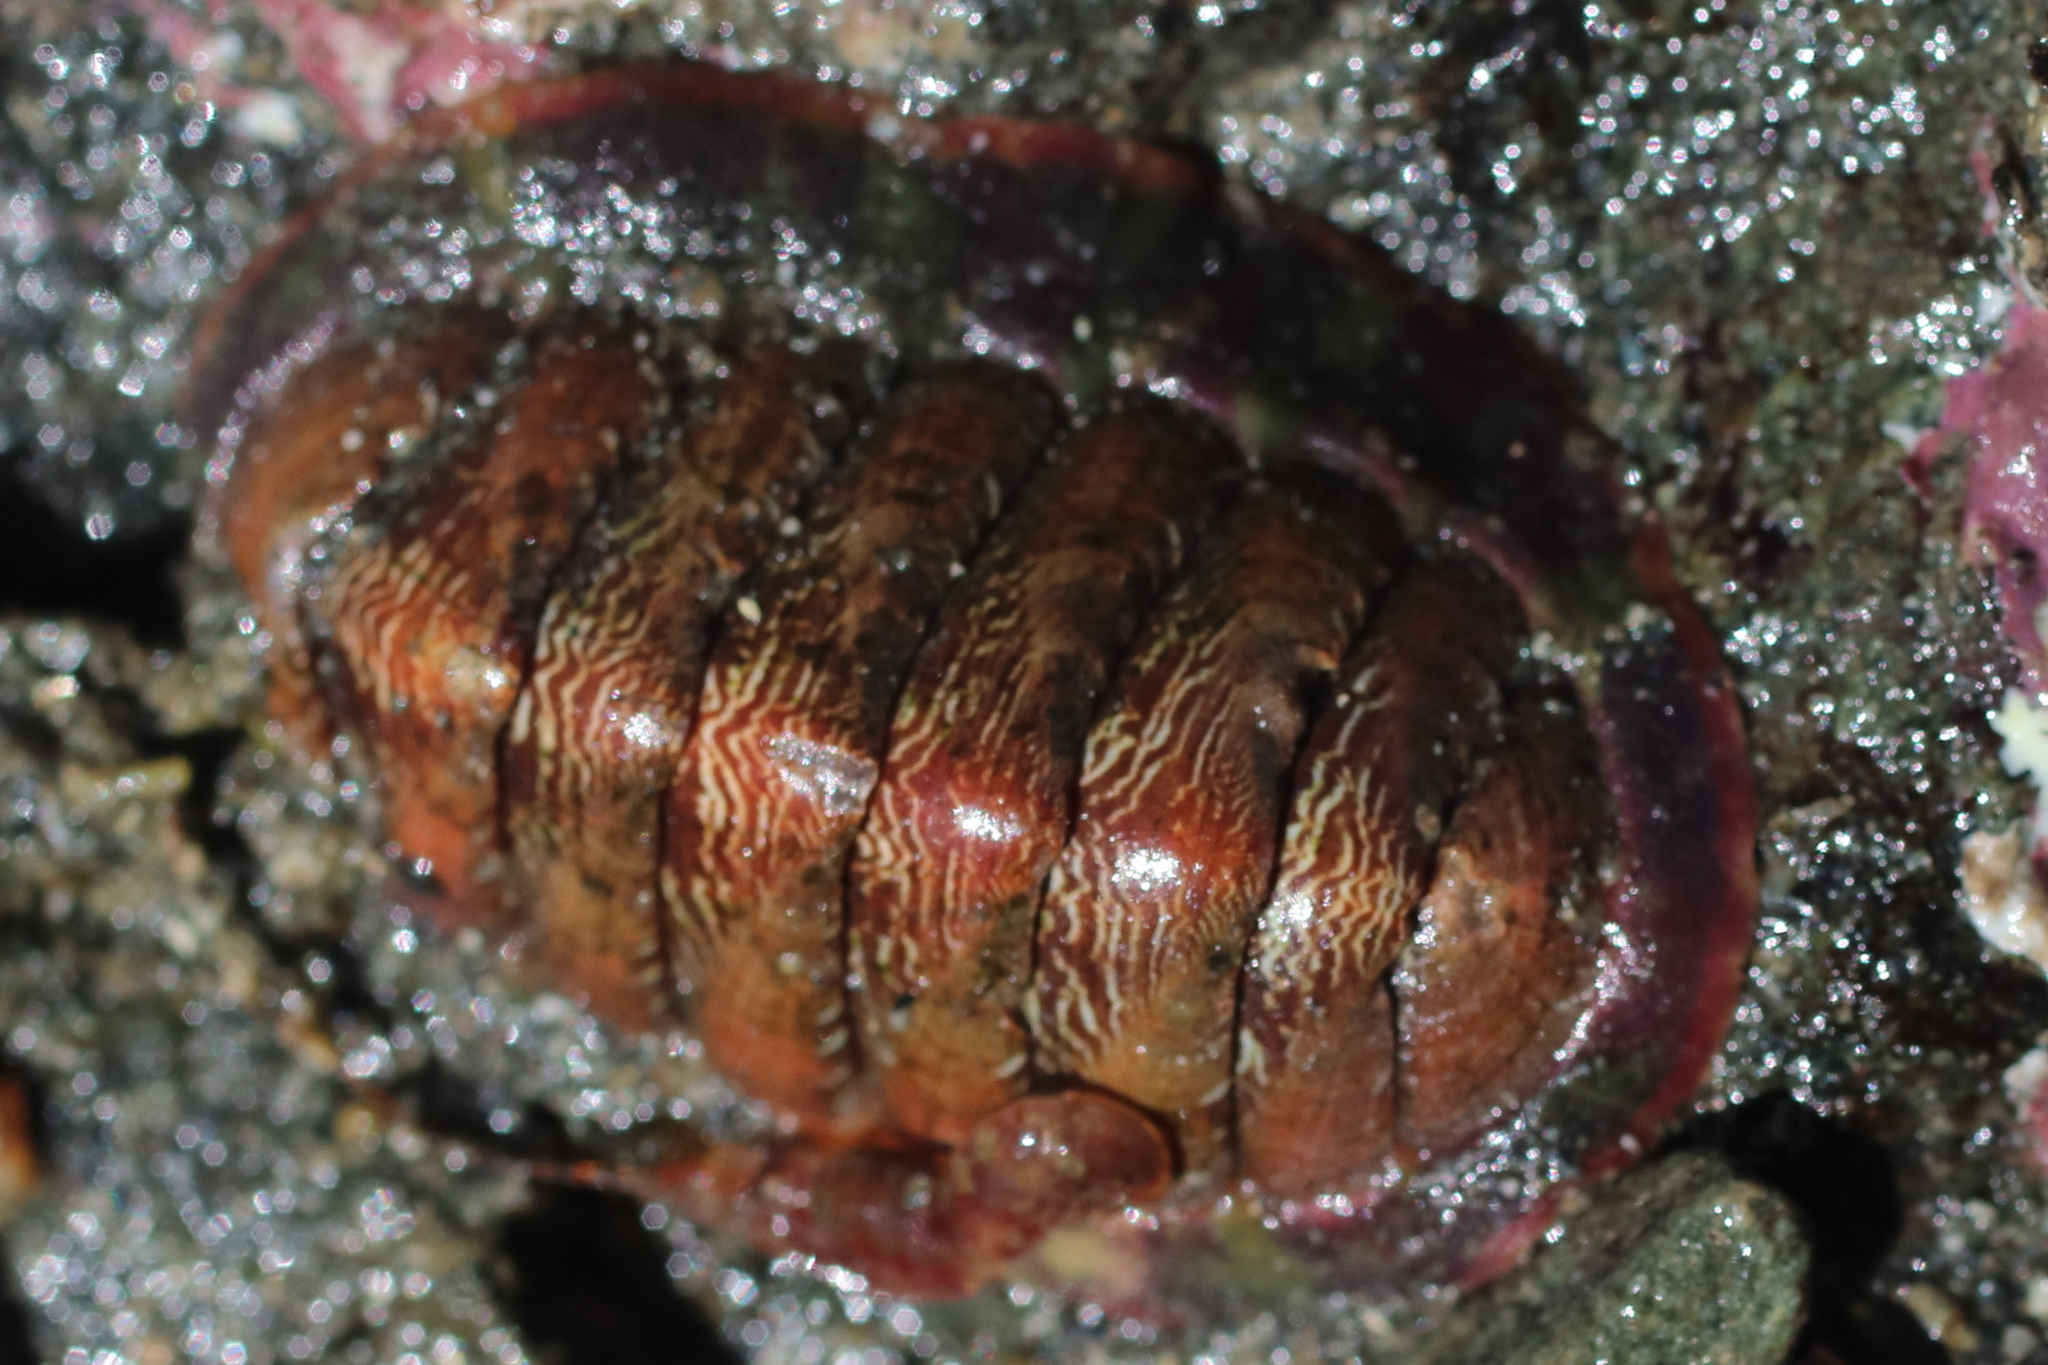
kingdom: Animalia
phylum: Mollusca
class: Polyplacophora
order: Chitonida
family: Tonicellidae
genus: Tonicella
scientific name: Tonicella insignis
